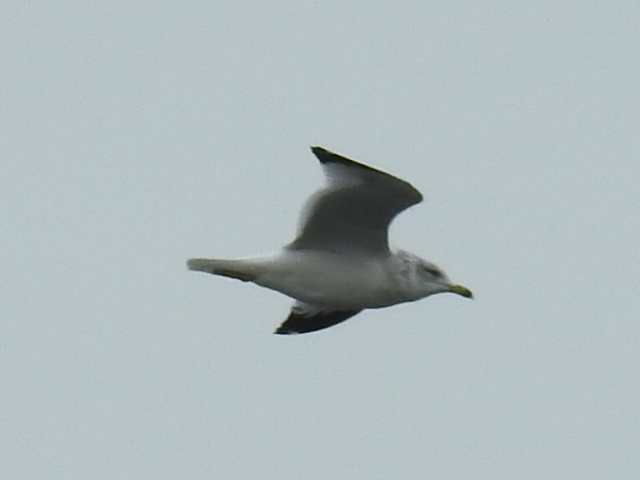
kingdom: Animalia
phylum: Chordata
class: Aves
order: Charadriiformes
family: Laridae
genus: Larus
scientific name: Larus delawarensis
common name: Ring-billed gull
